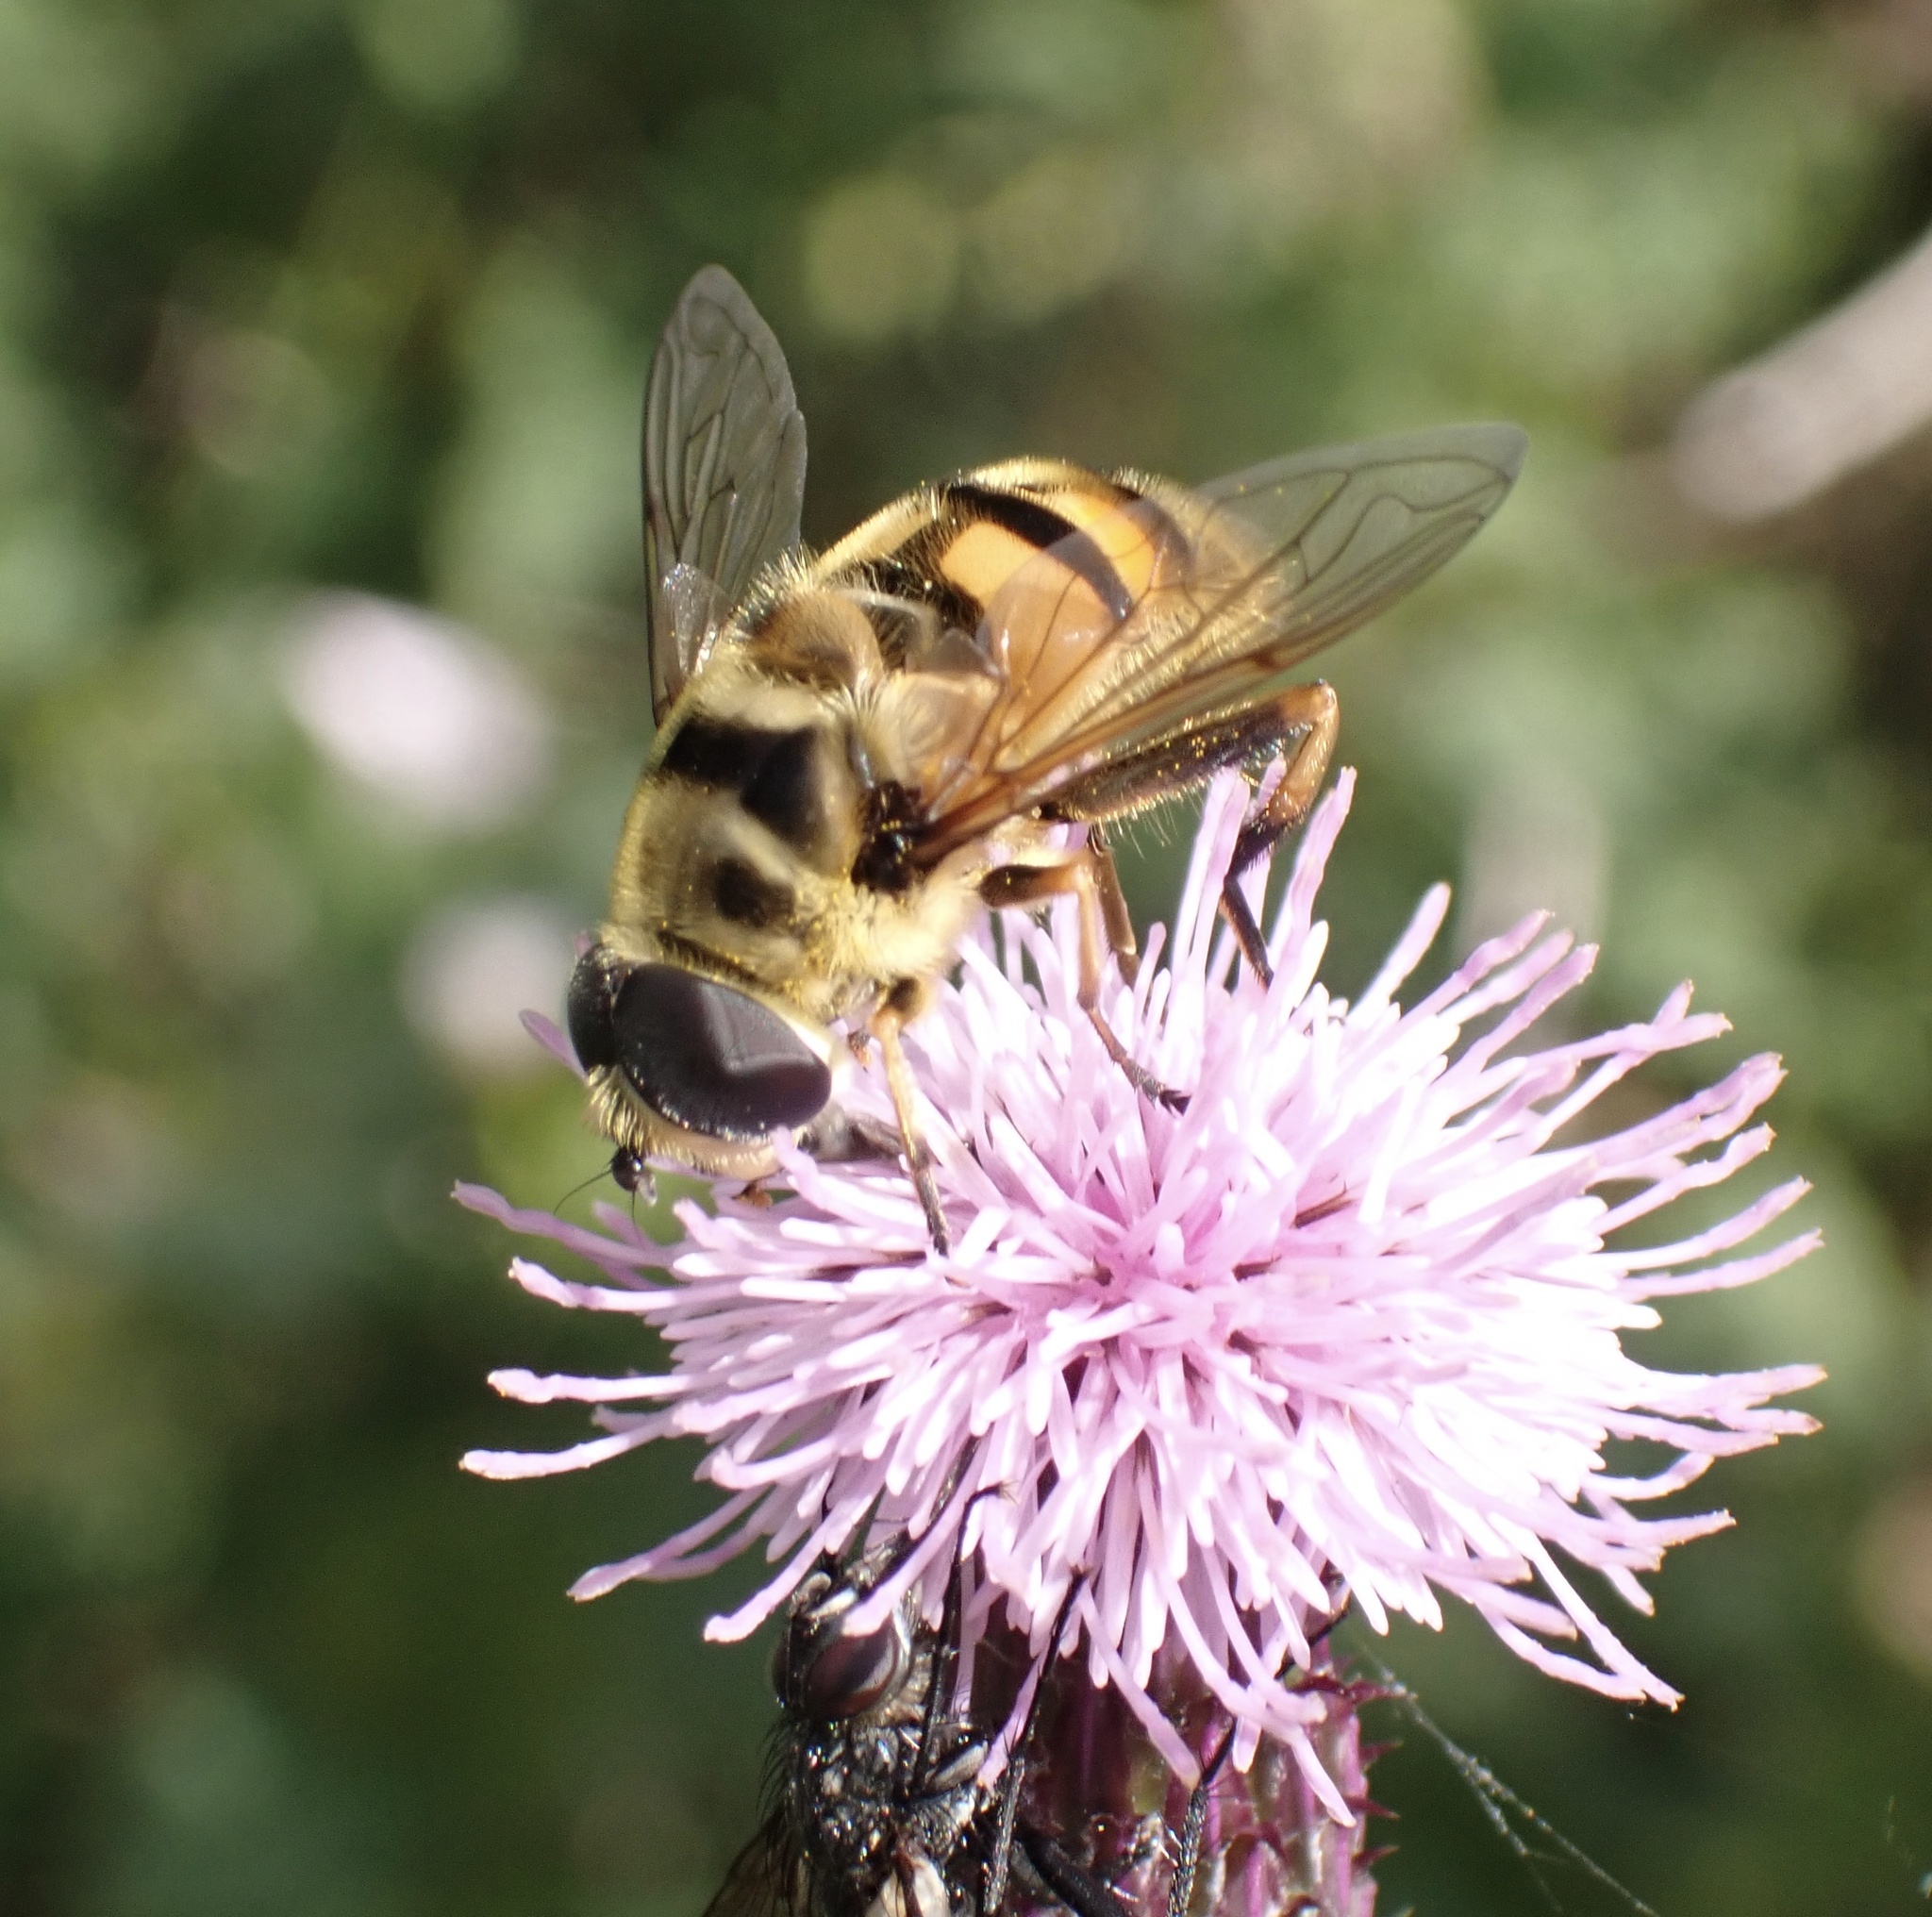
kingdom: Animalia
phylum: Arthropoda
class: Insecta
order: Diptera
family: Syrphidae
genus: Myathropa
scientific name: Myathropa florea
